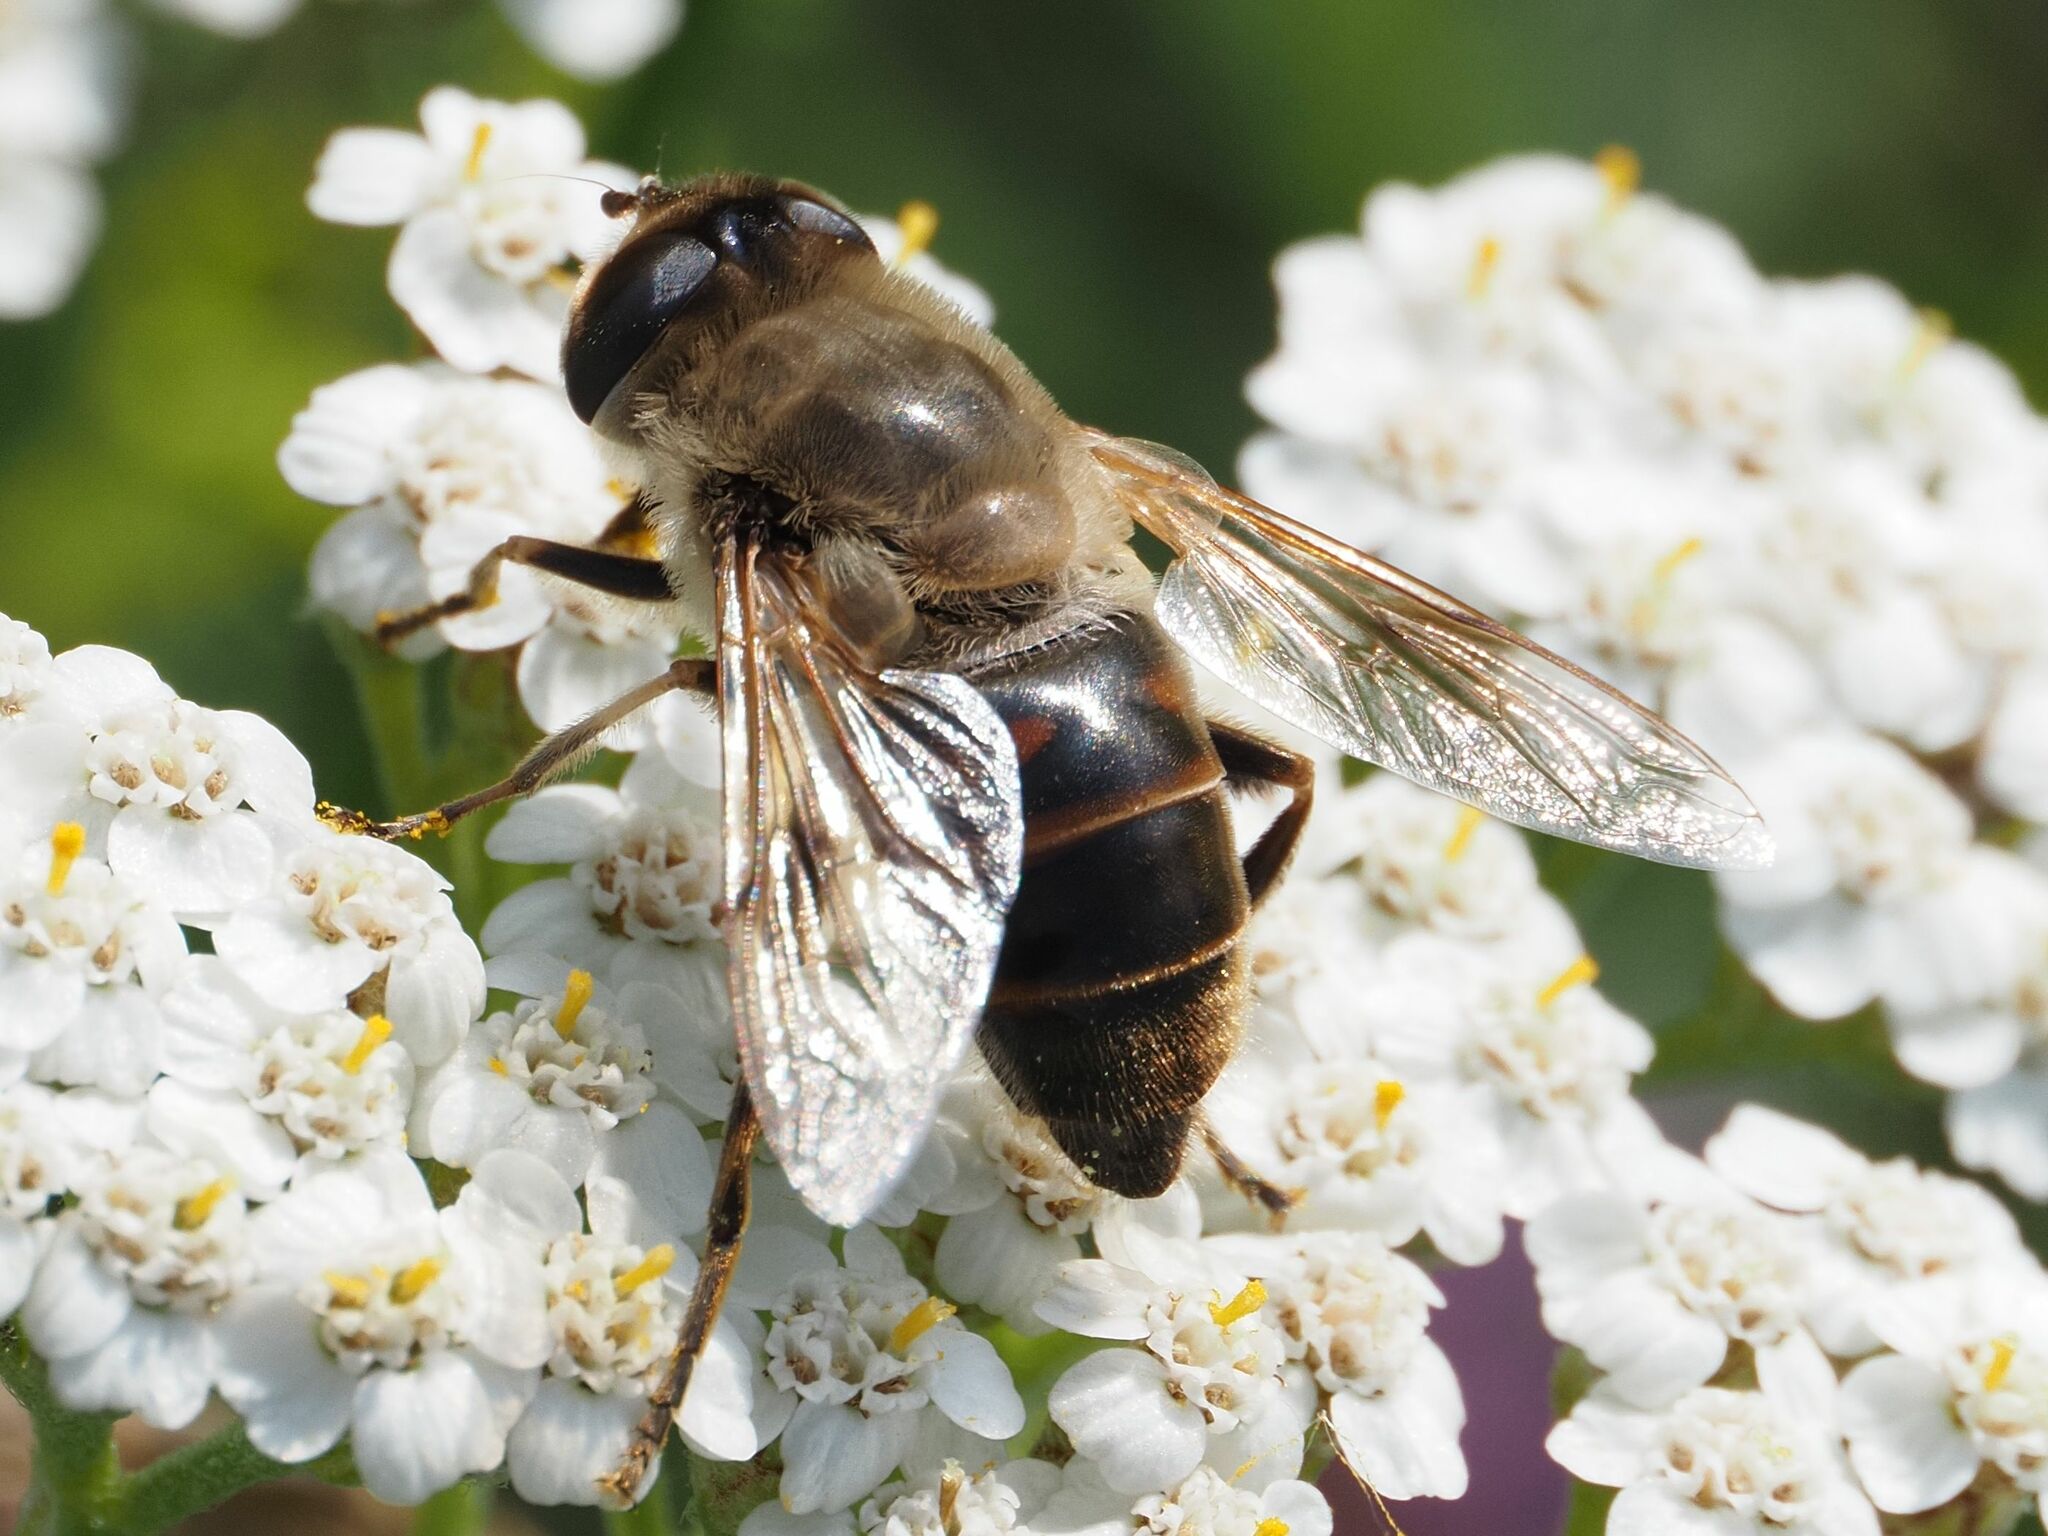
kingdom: Animalia
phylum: Arthropoda
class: Insecta
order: Diptera
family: Syrphidae
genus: Eristalis
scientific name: Eristalis tenax
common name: Drone fly
